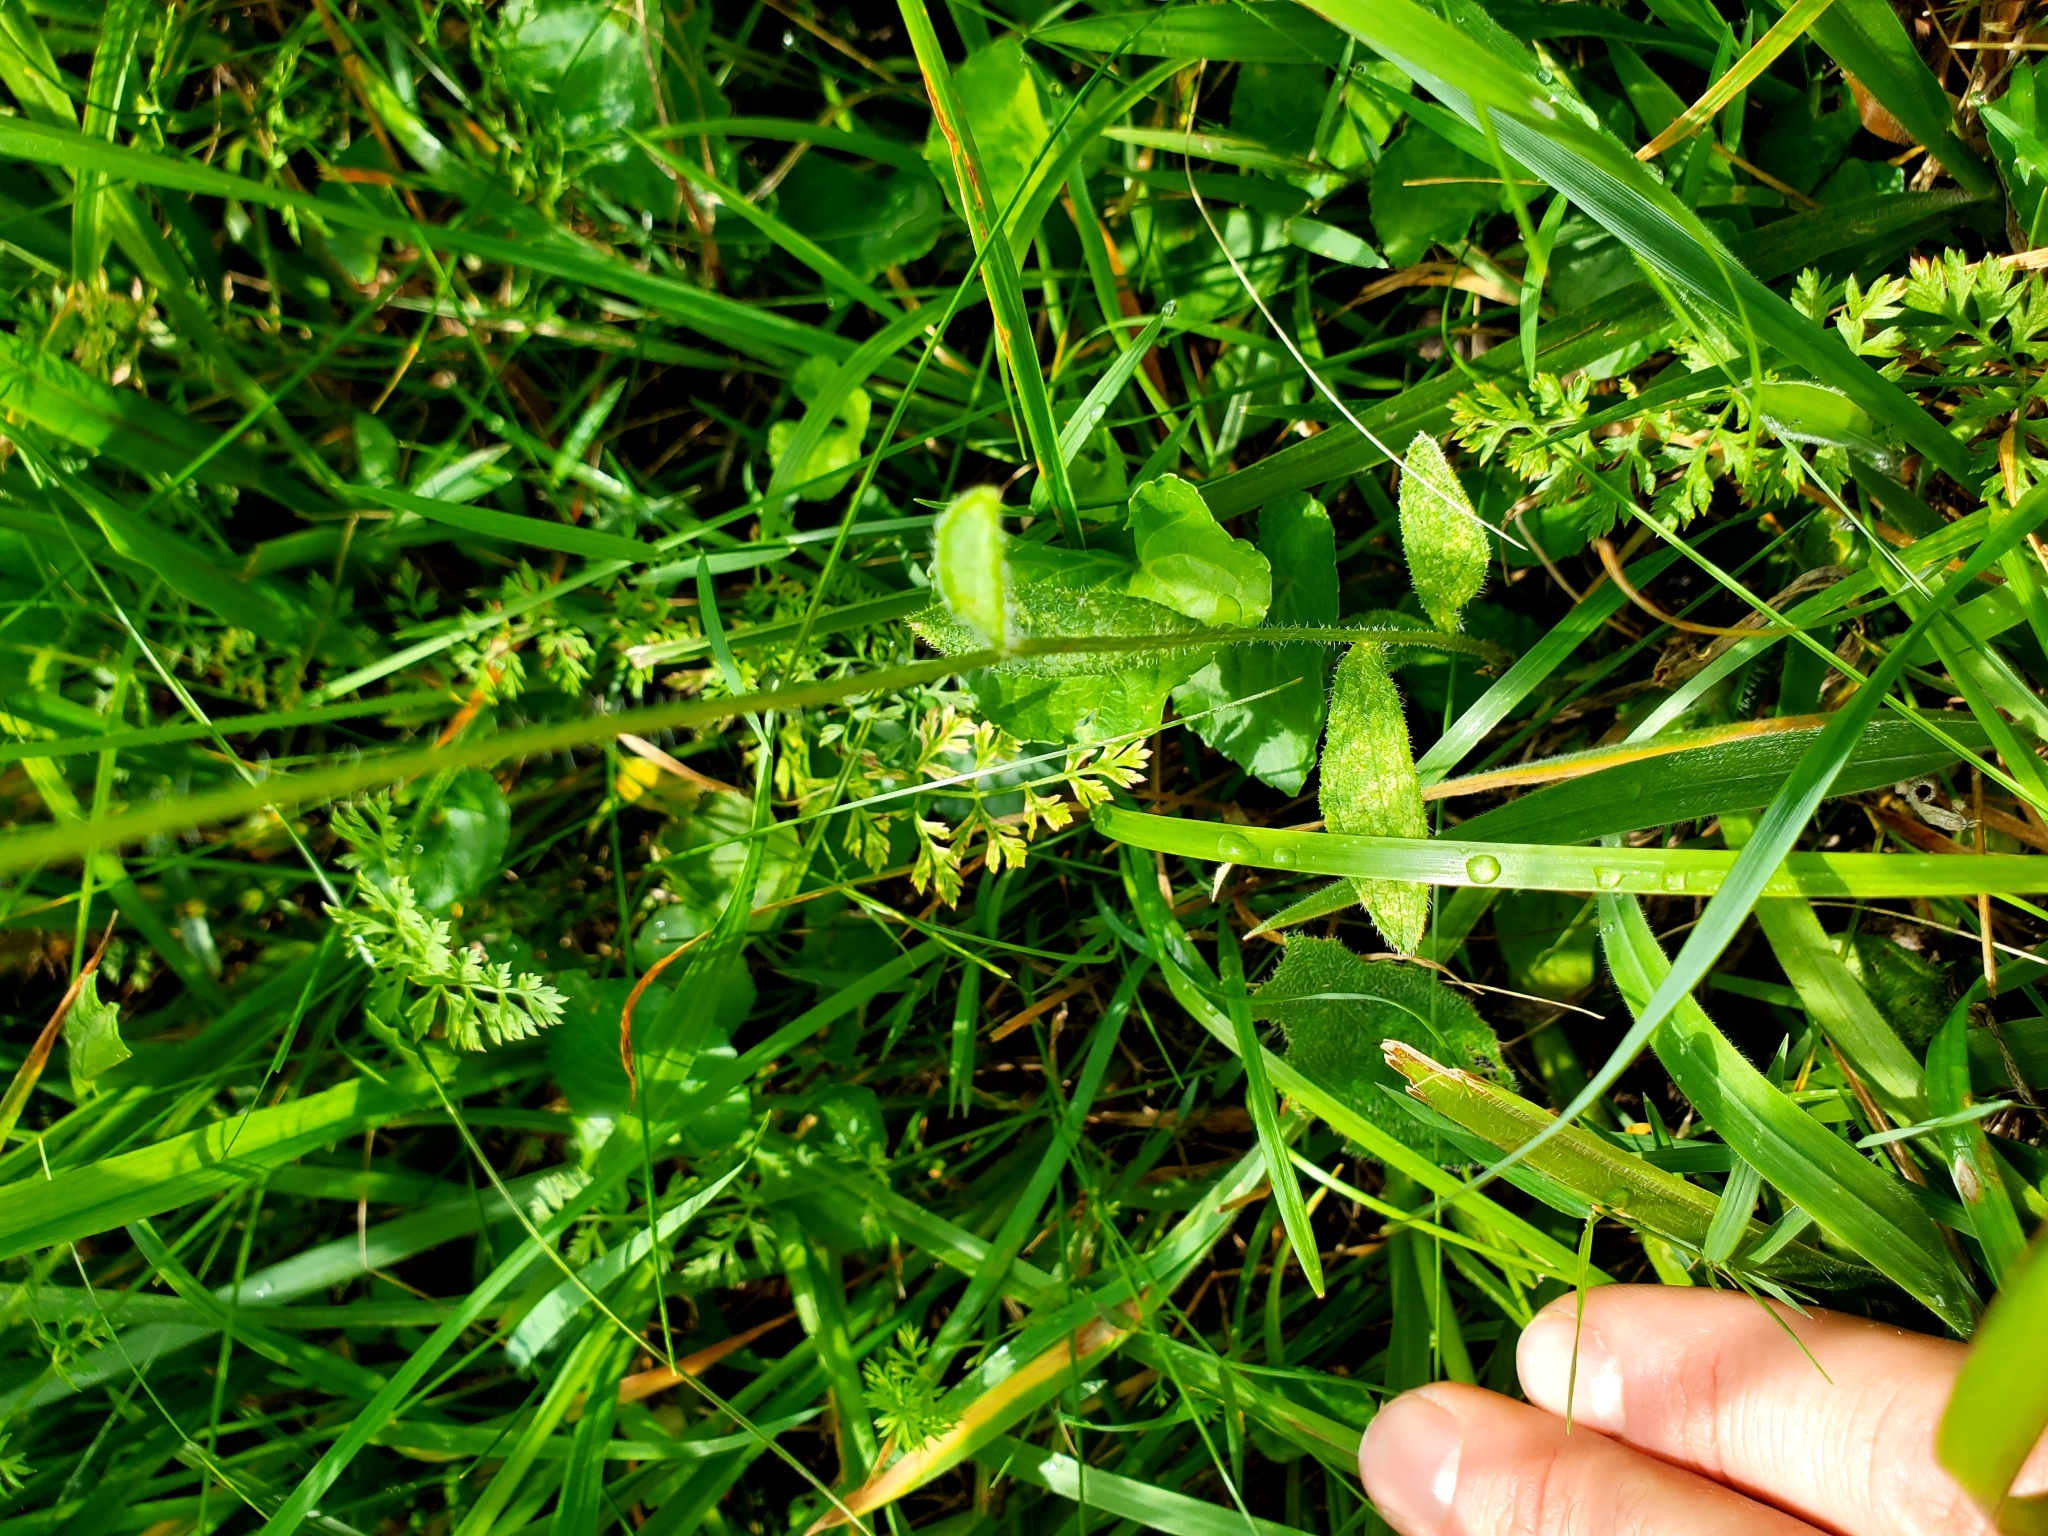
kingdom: Plantae
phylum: Tracheophyta
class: Magnoliopsida
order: Asterales
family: Asteraceae
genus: Rudbeckia
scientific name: Rudbeckia hirta
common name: Black-eyed-susan
